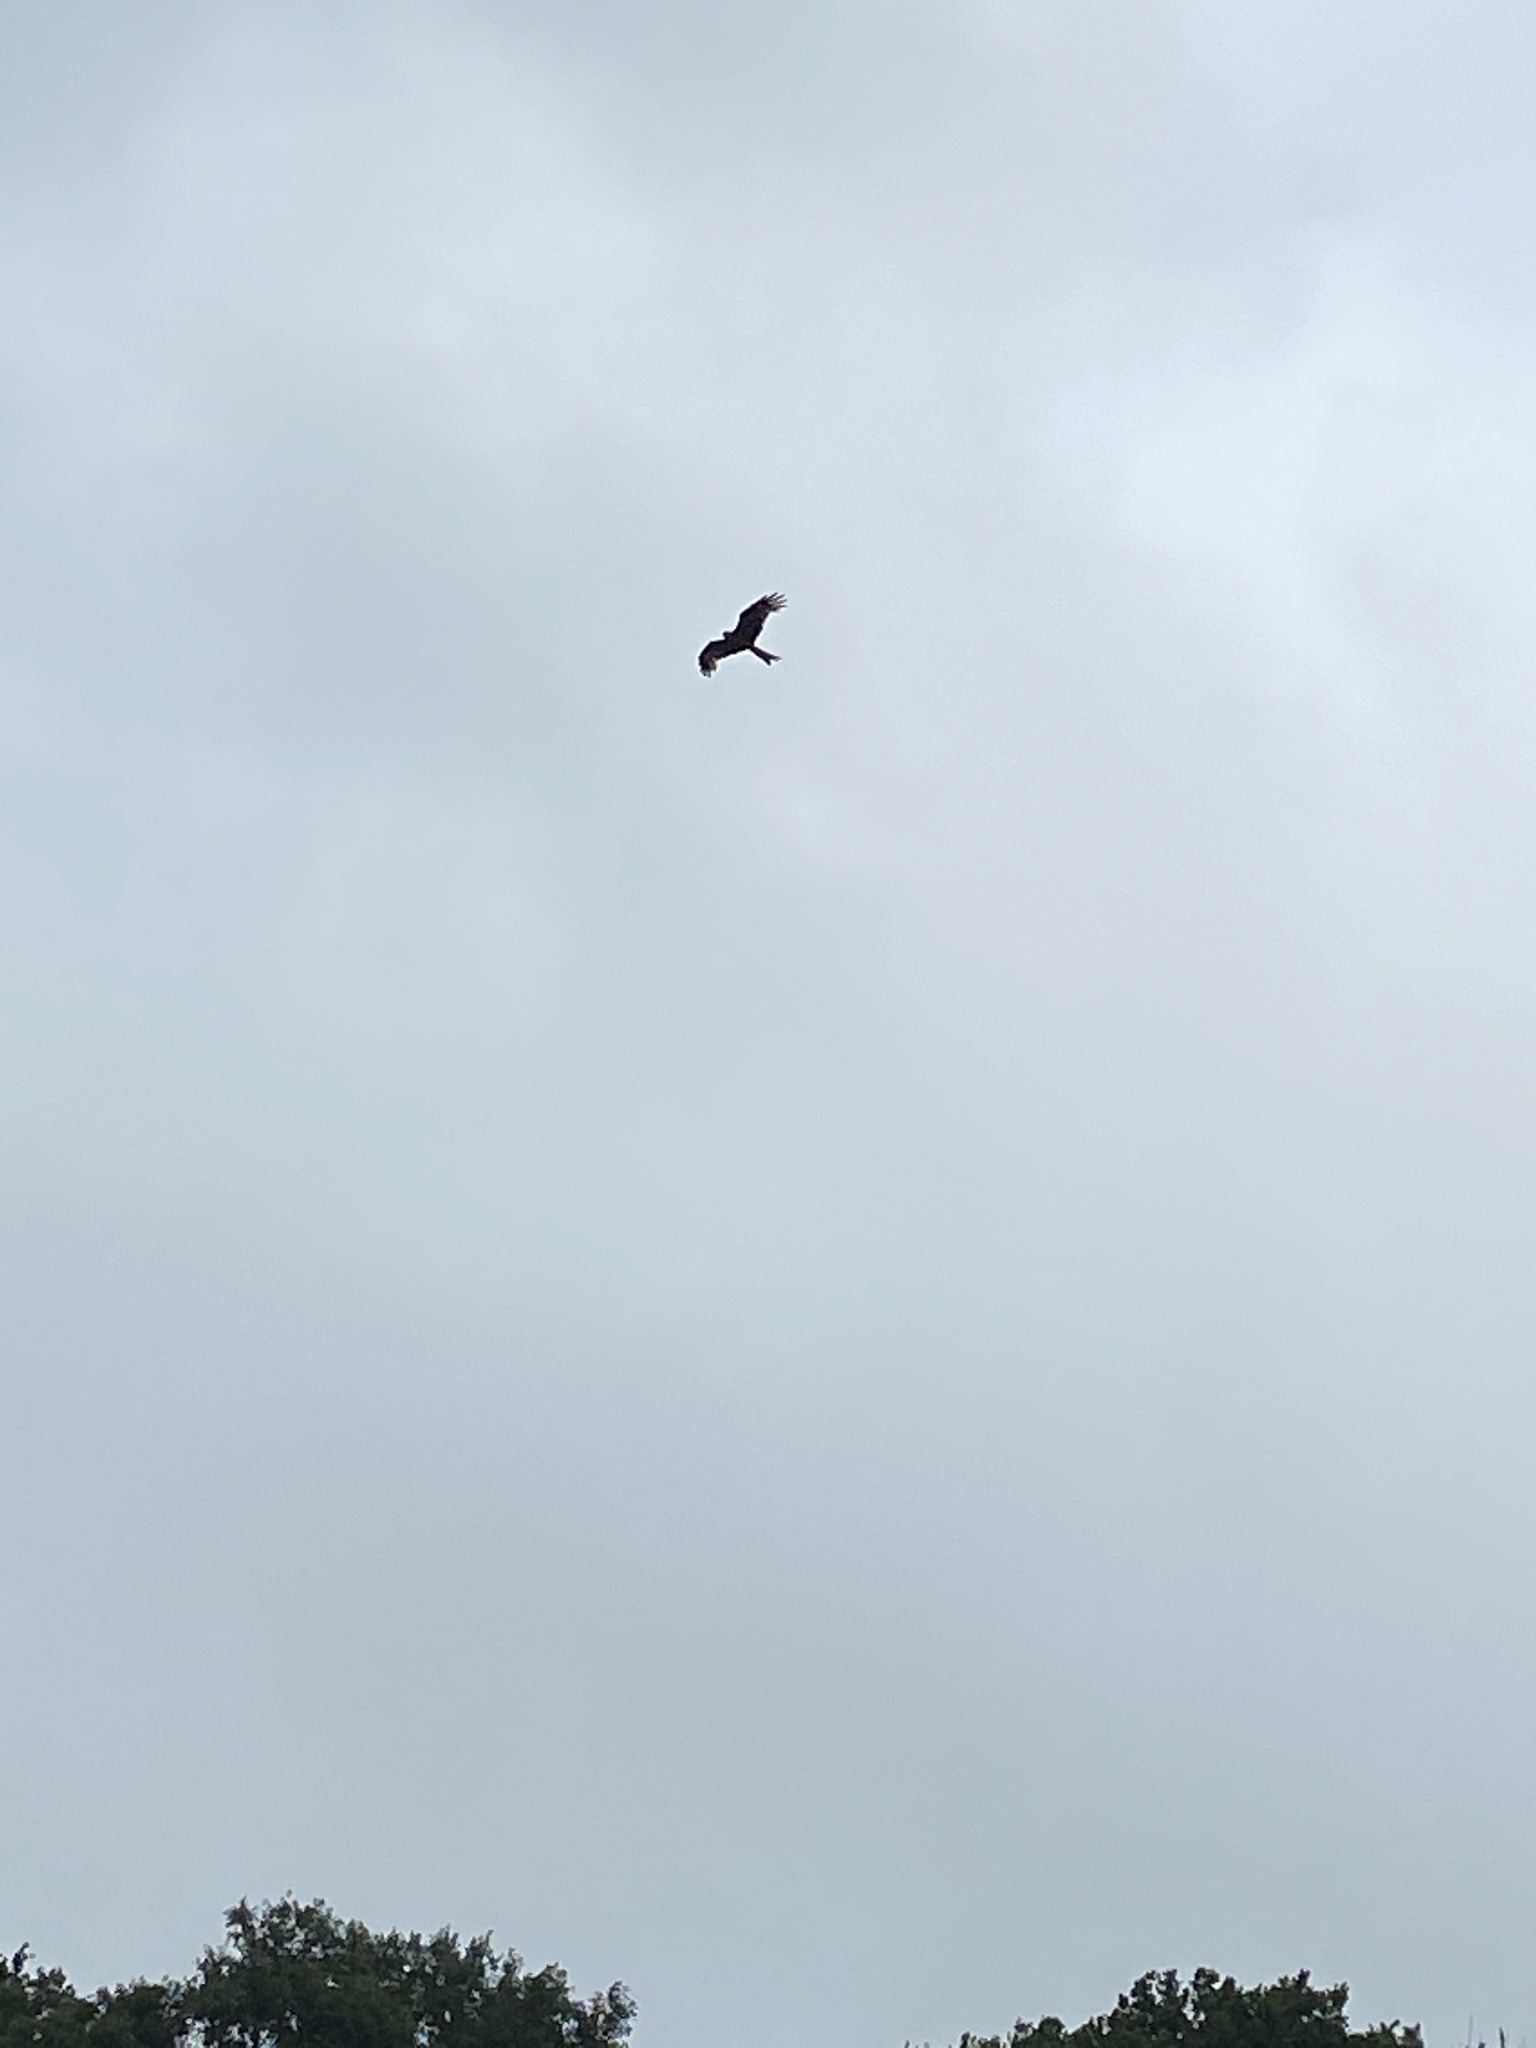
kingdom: Animalia
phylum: Chordata
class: Aves
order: Accipitriformes
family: Accipitridae
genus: Milvus
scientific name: Milvus milvus
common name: Red kite
